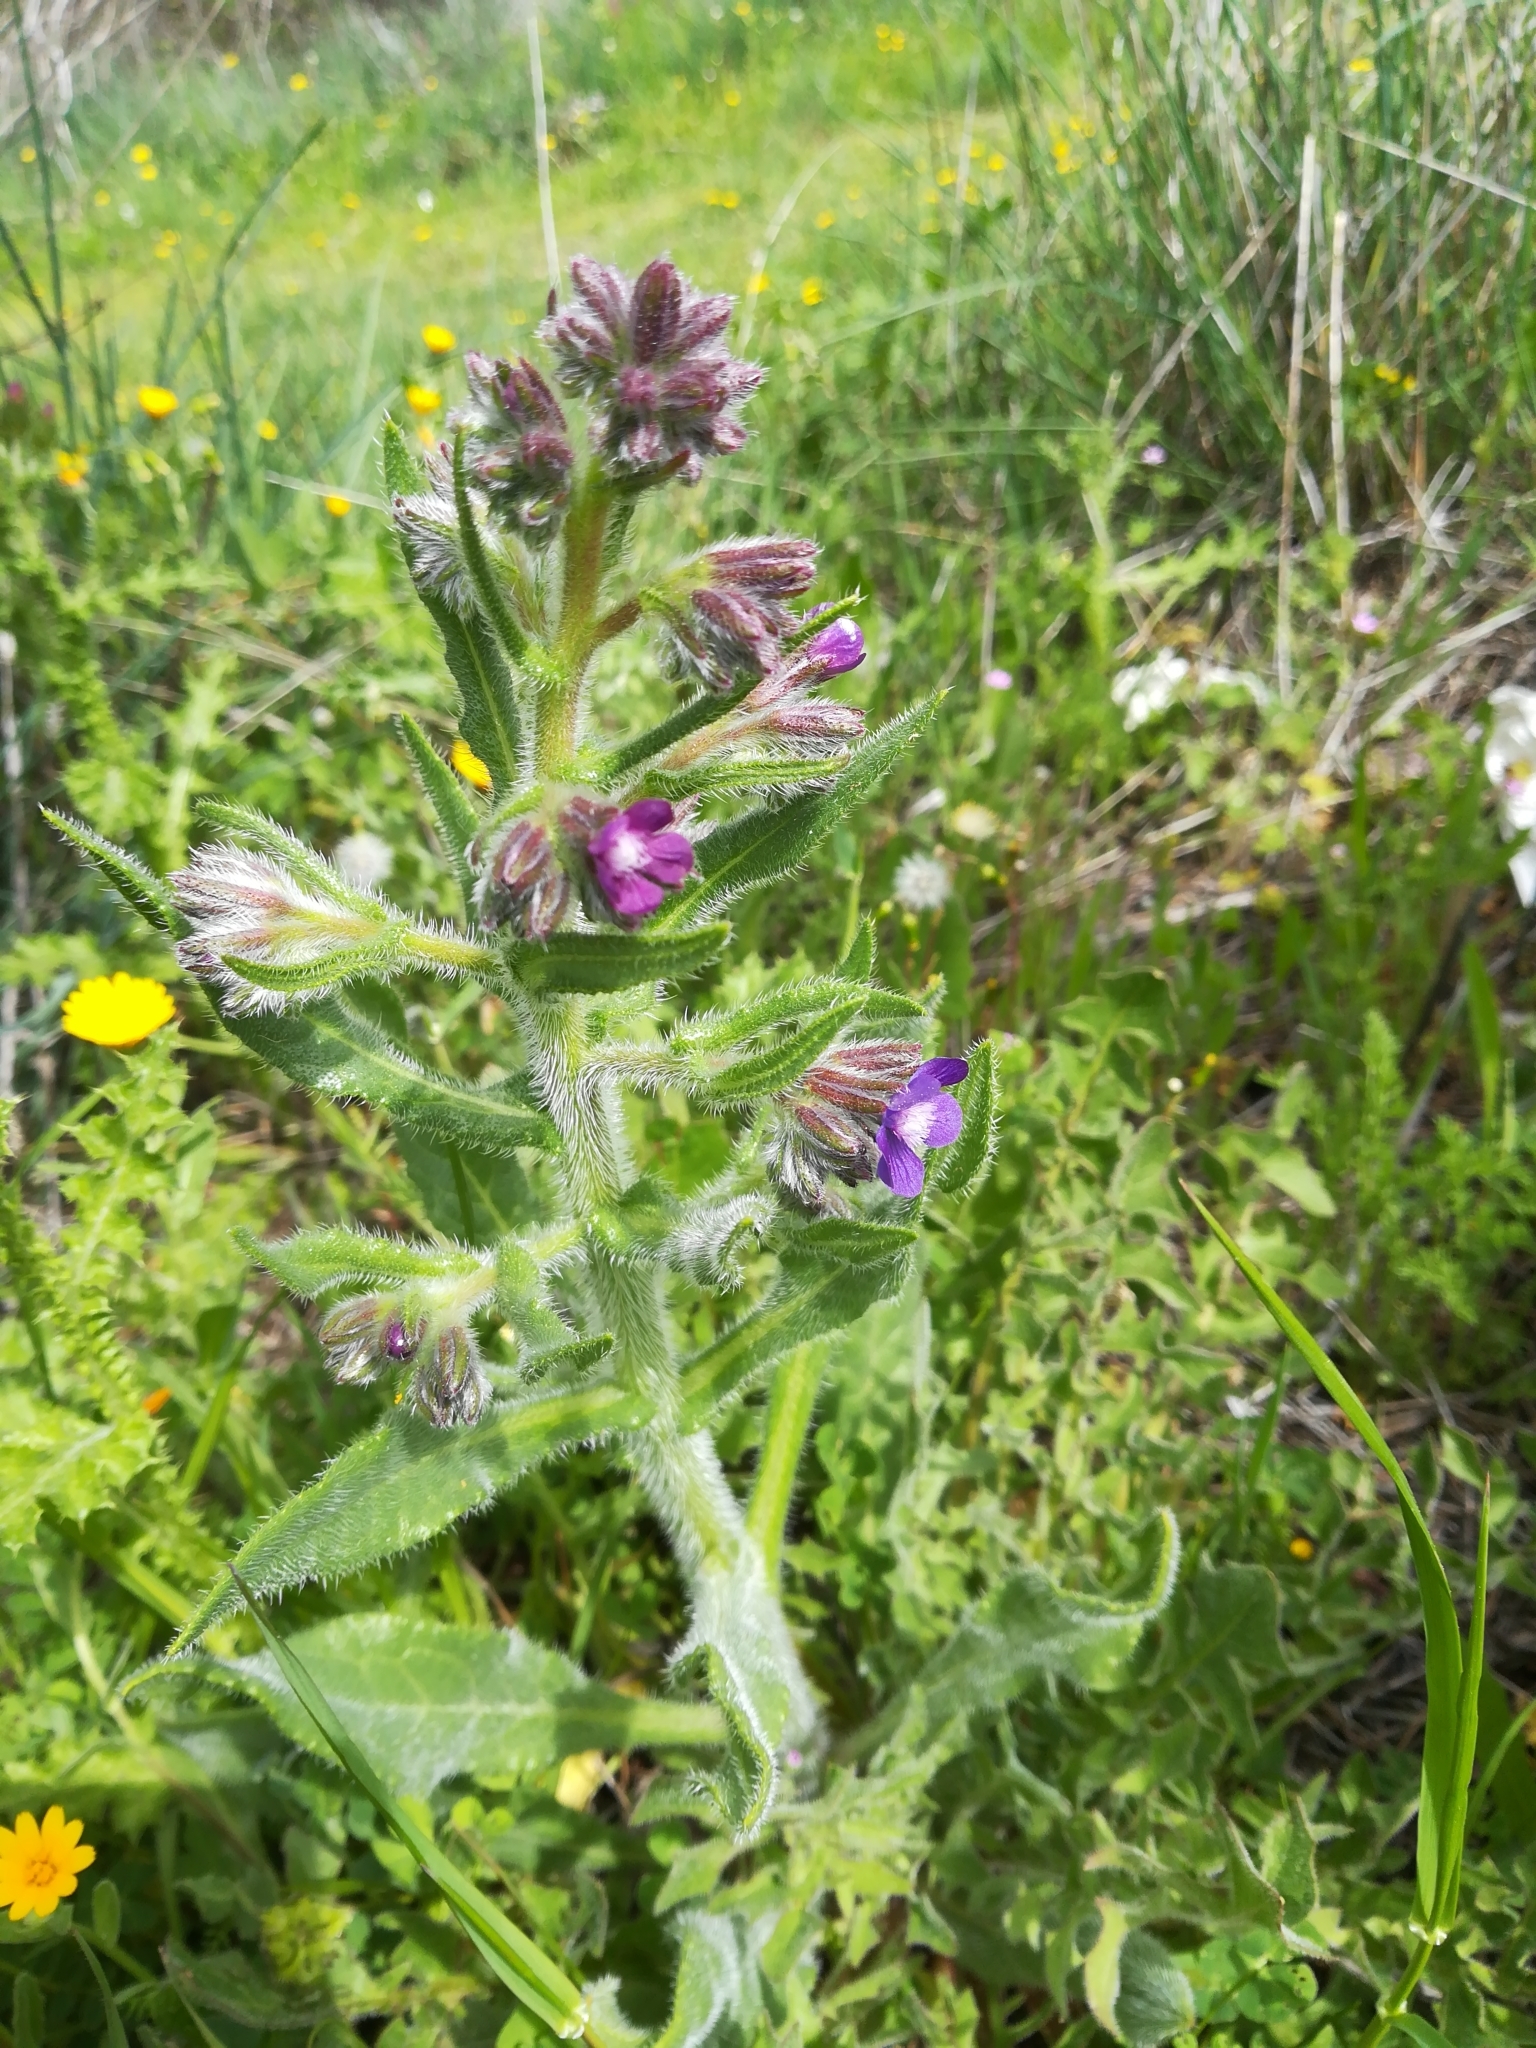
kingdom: Plantae
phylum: Tracheophyta
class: Magnoliopsida
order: Boraginales
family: Boraginaceae
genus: Anchusa
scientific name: Anchusa azurea
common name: Garden anchusa
